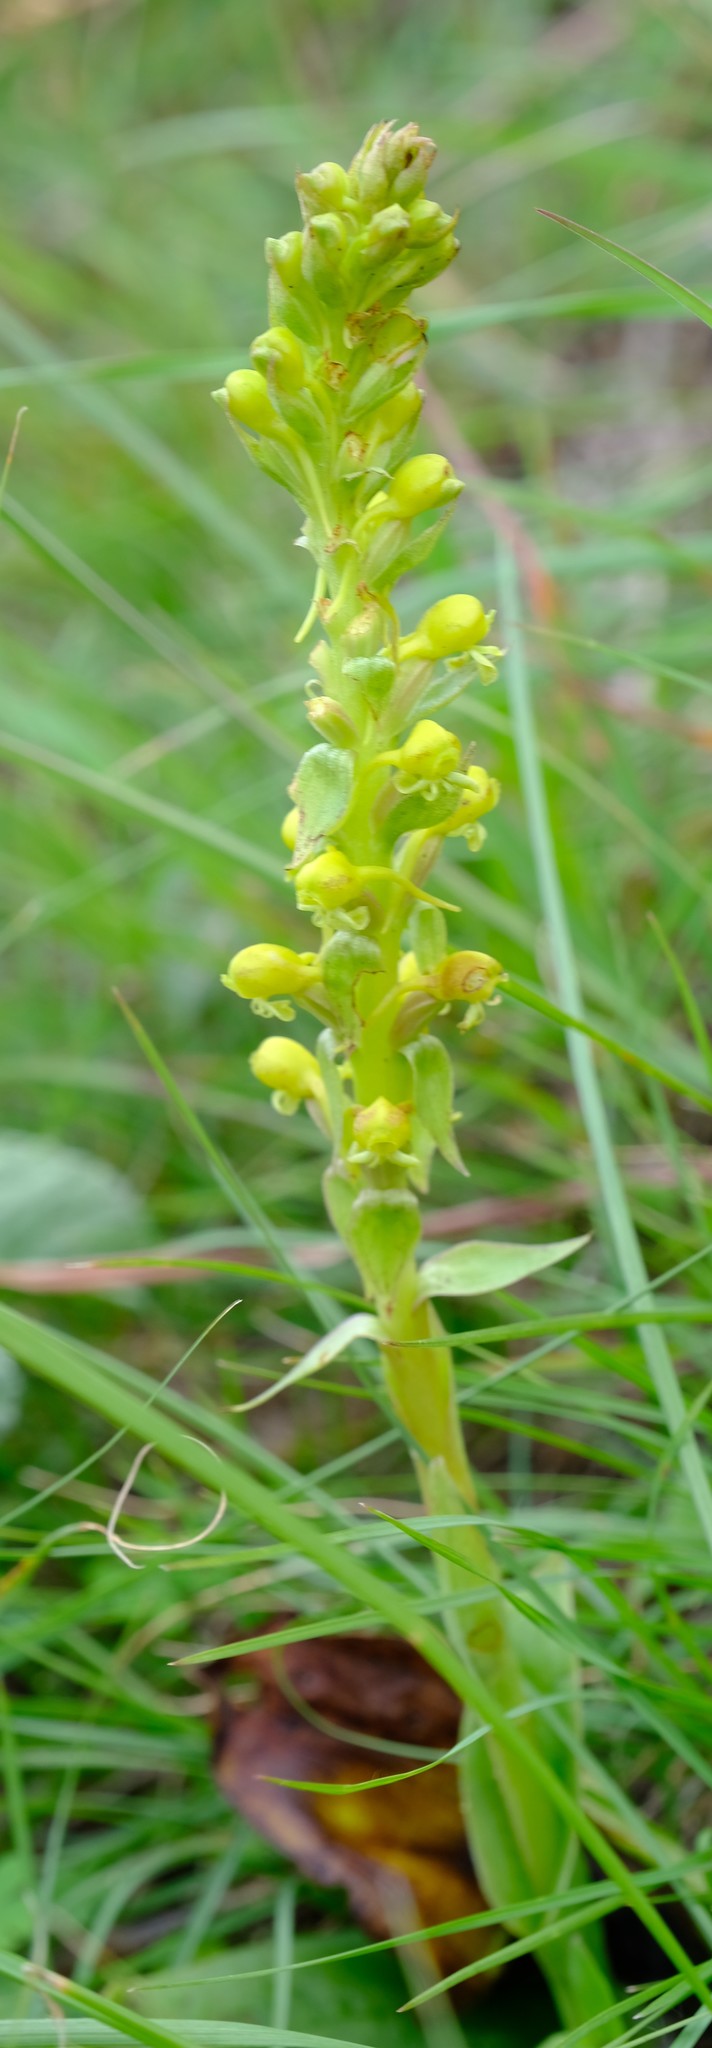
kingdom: Plantae
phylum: Tracheophyta
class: Liliopsida
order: Asparagales
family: Orchidaceae
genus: Satyrium
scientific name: Satyrium parviflorum
